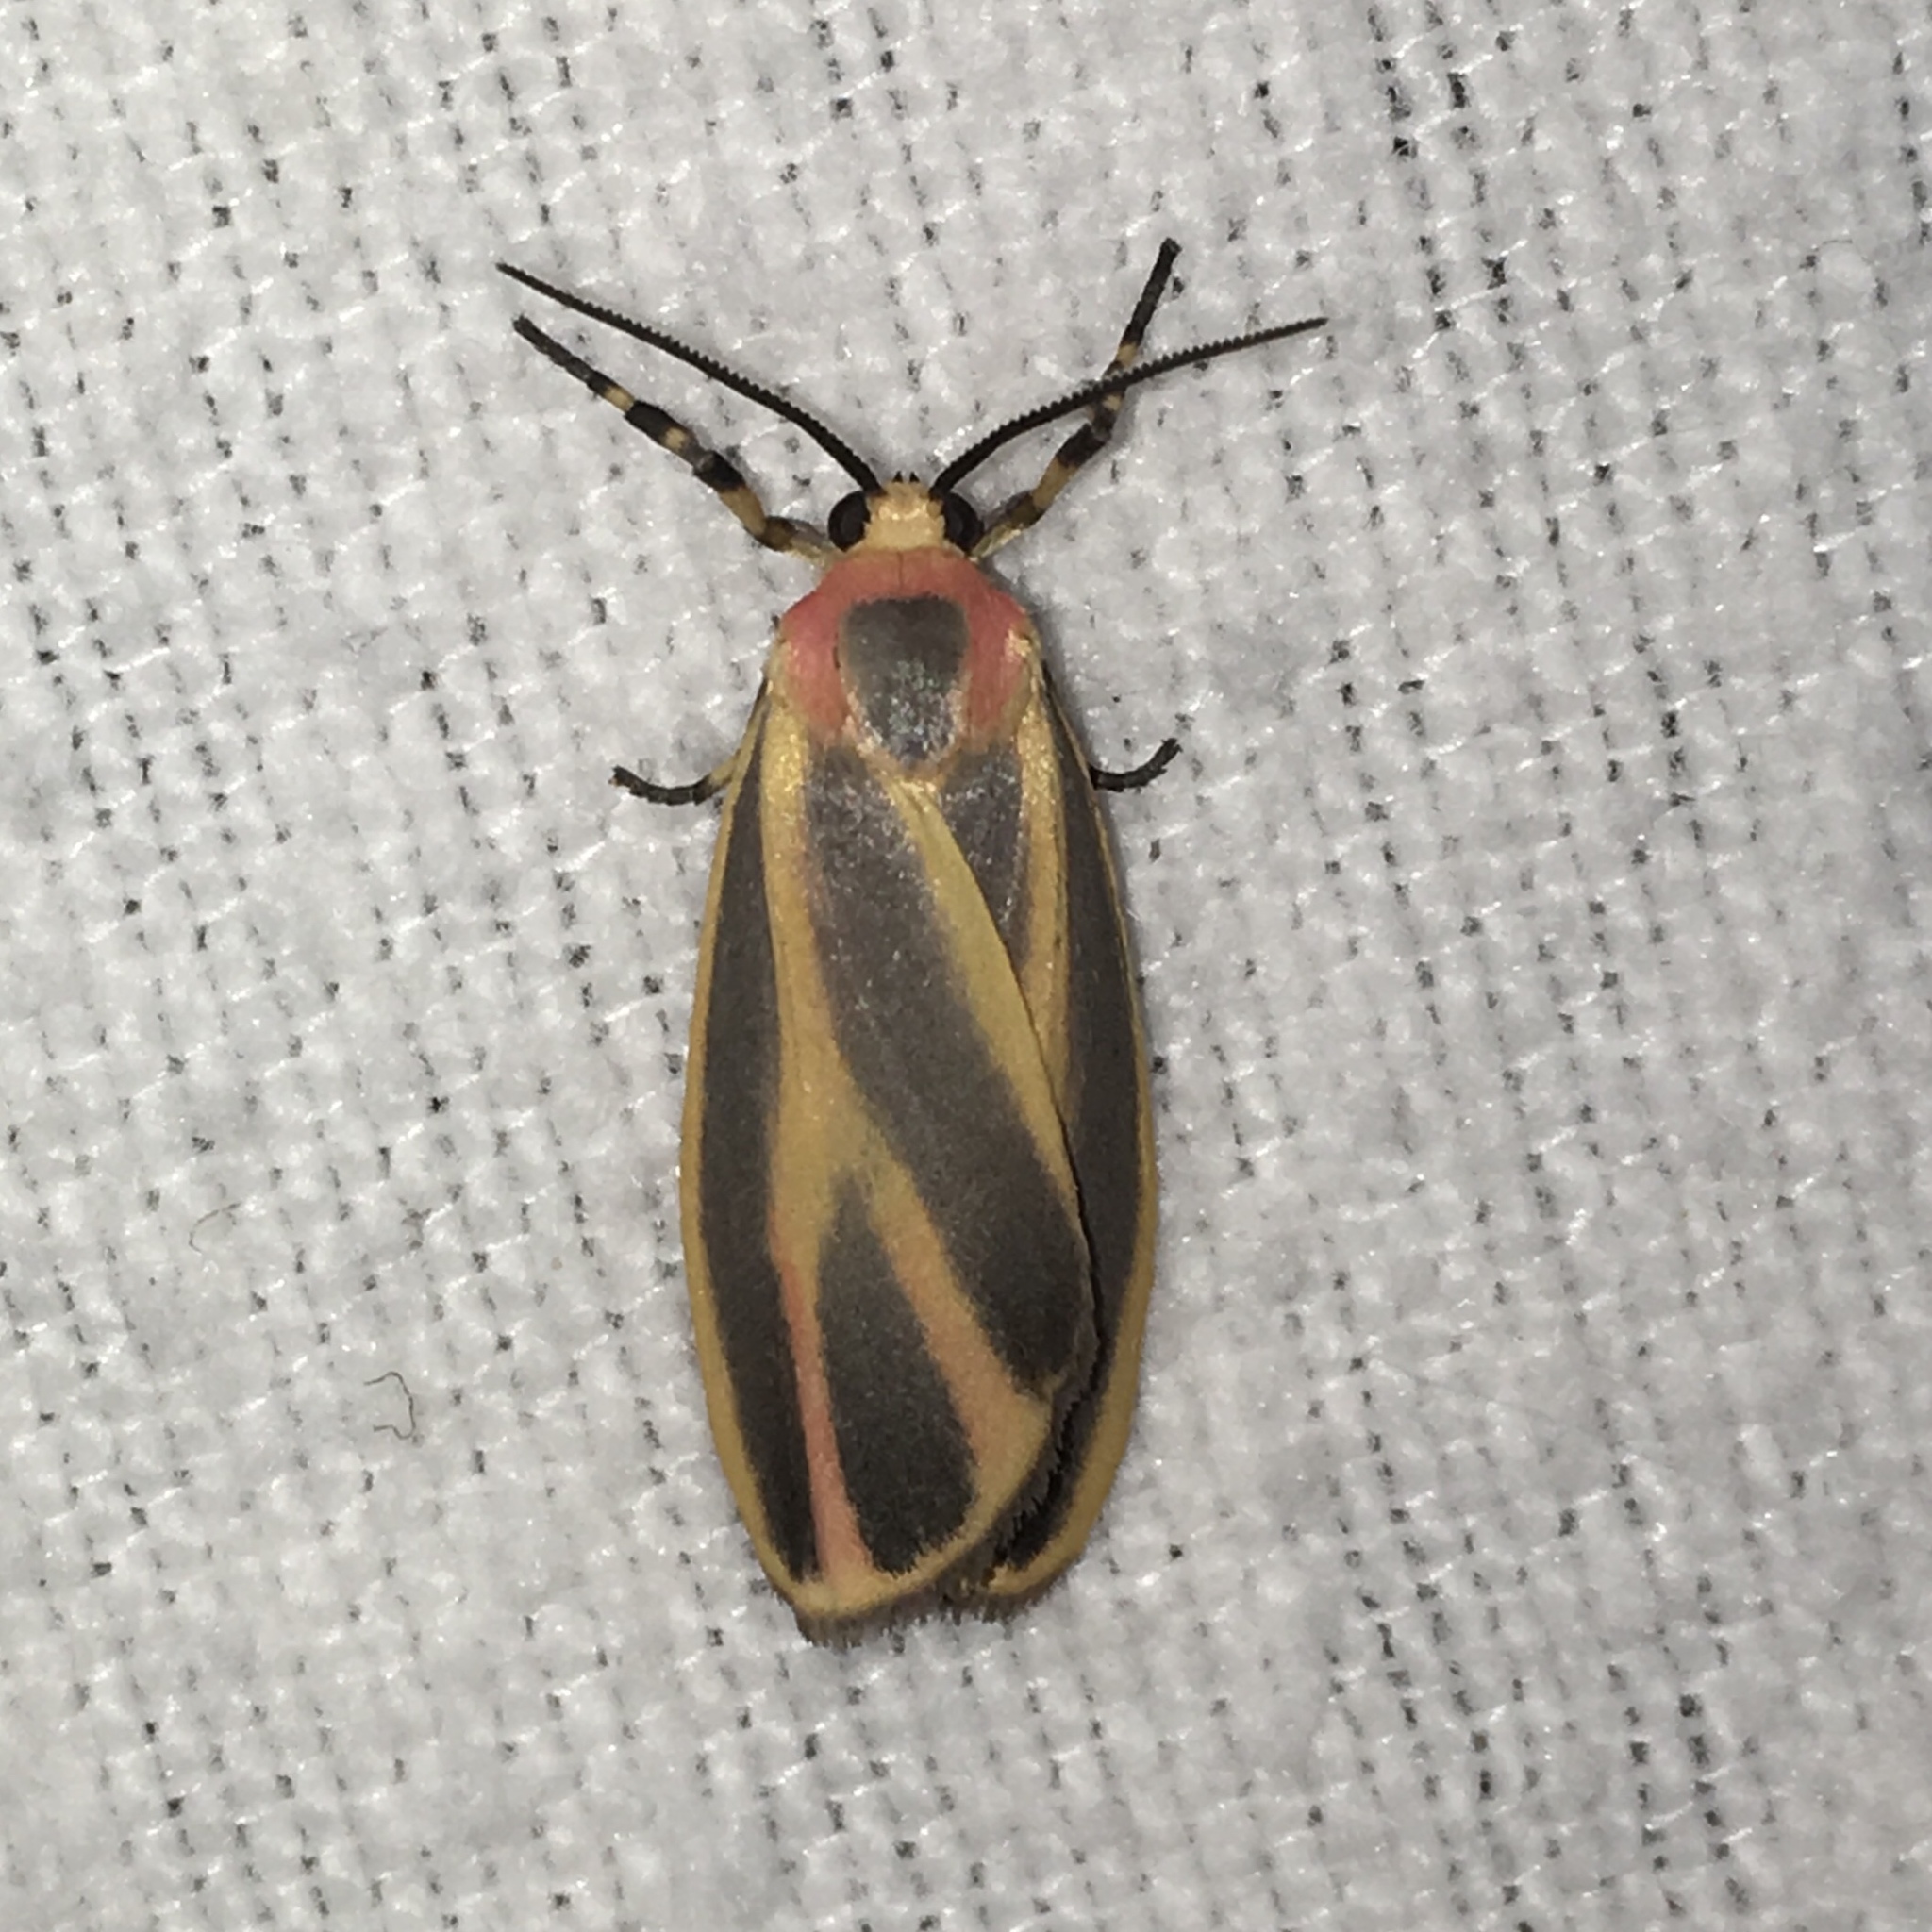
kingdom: Animalia
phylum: Arthropoda
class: Insecta
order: Lepidoptera
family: Erebidae
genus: Hypoprepia
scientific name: Hypoprepia fucosa
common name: Painted lichen moth
